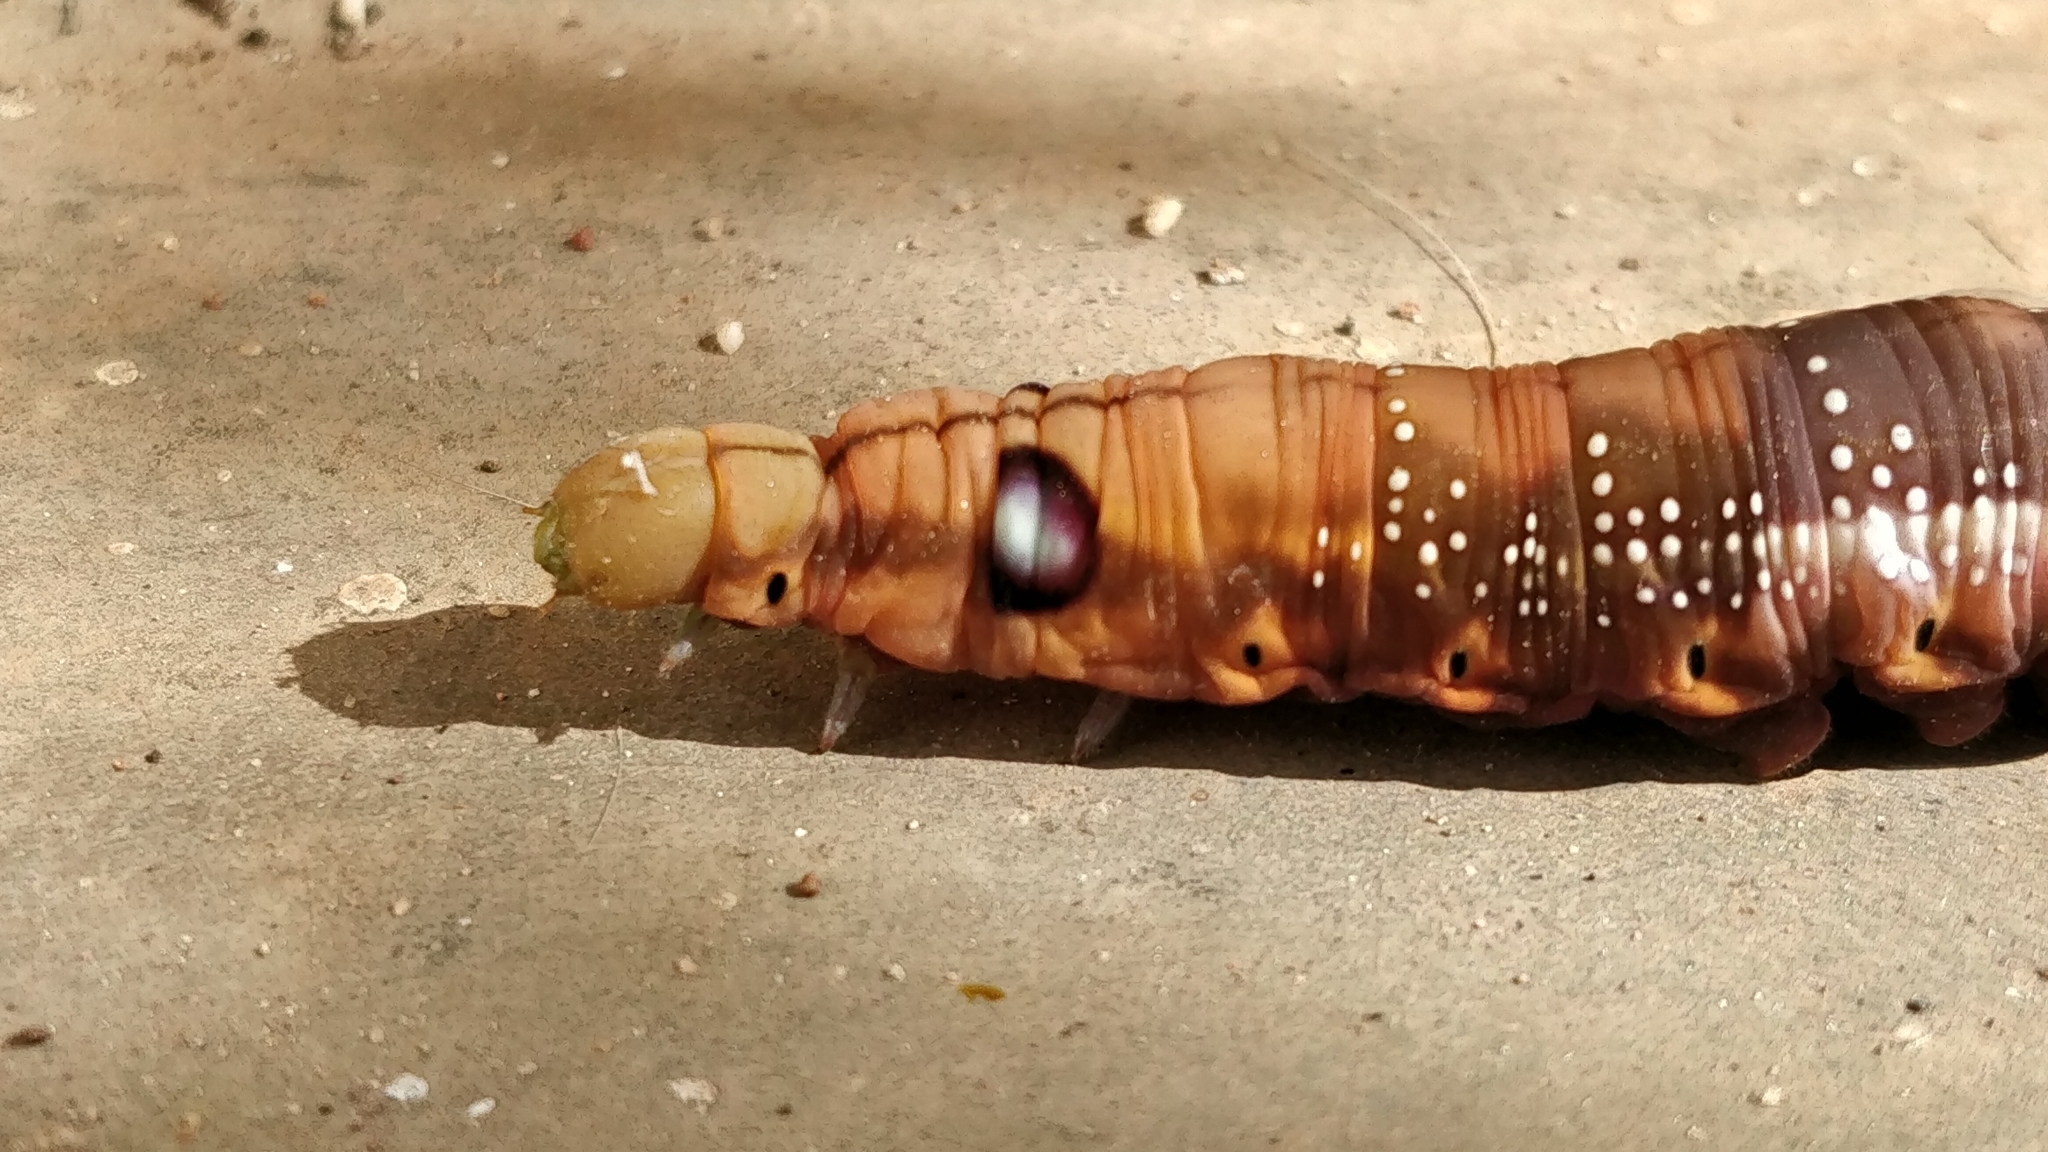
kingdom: Animalia
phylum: Arthropoda
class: Insecta
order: Lepidoptera
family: Sphingidae
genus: Daphnis
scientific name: Daphnis nerii
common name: Oleander hawk-moth
